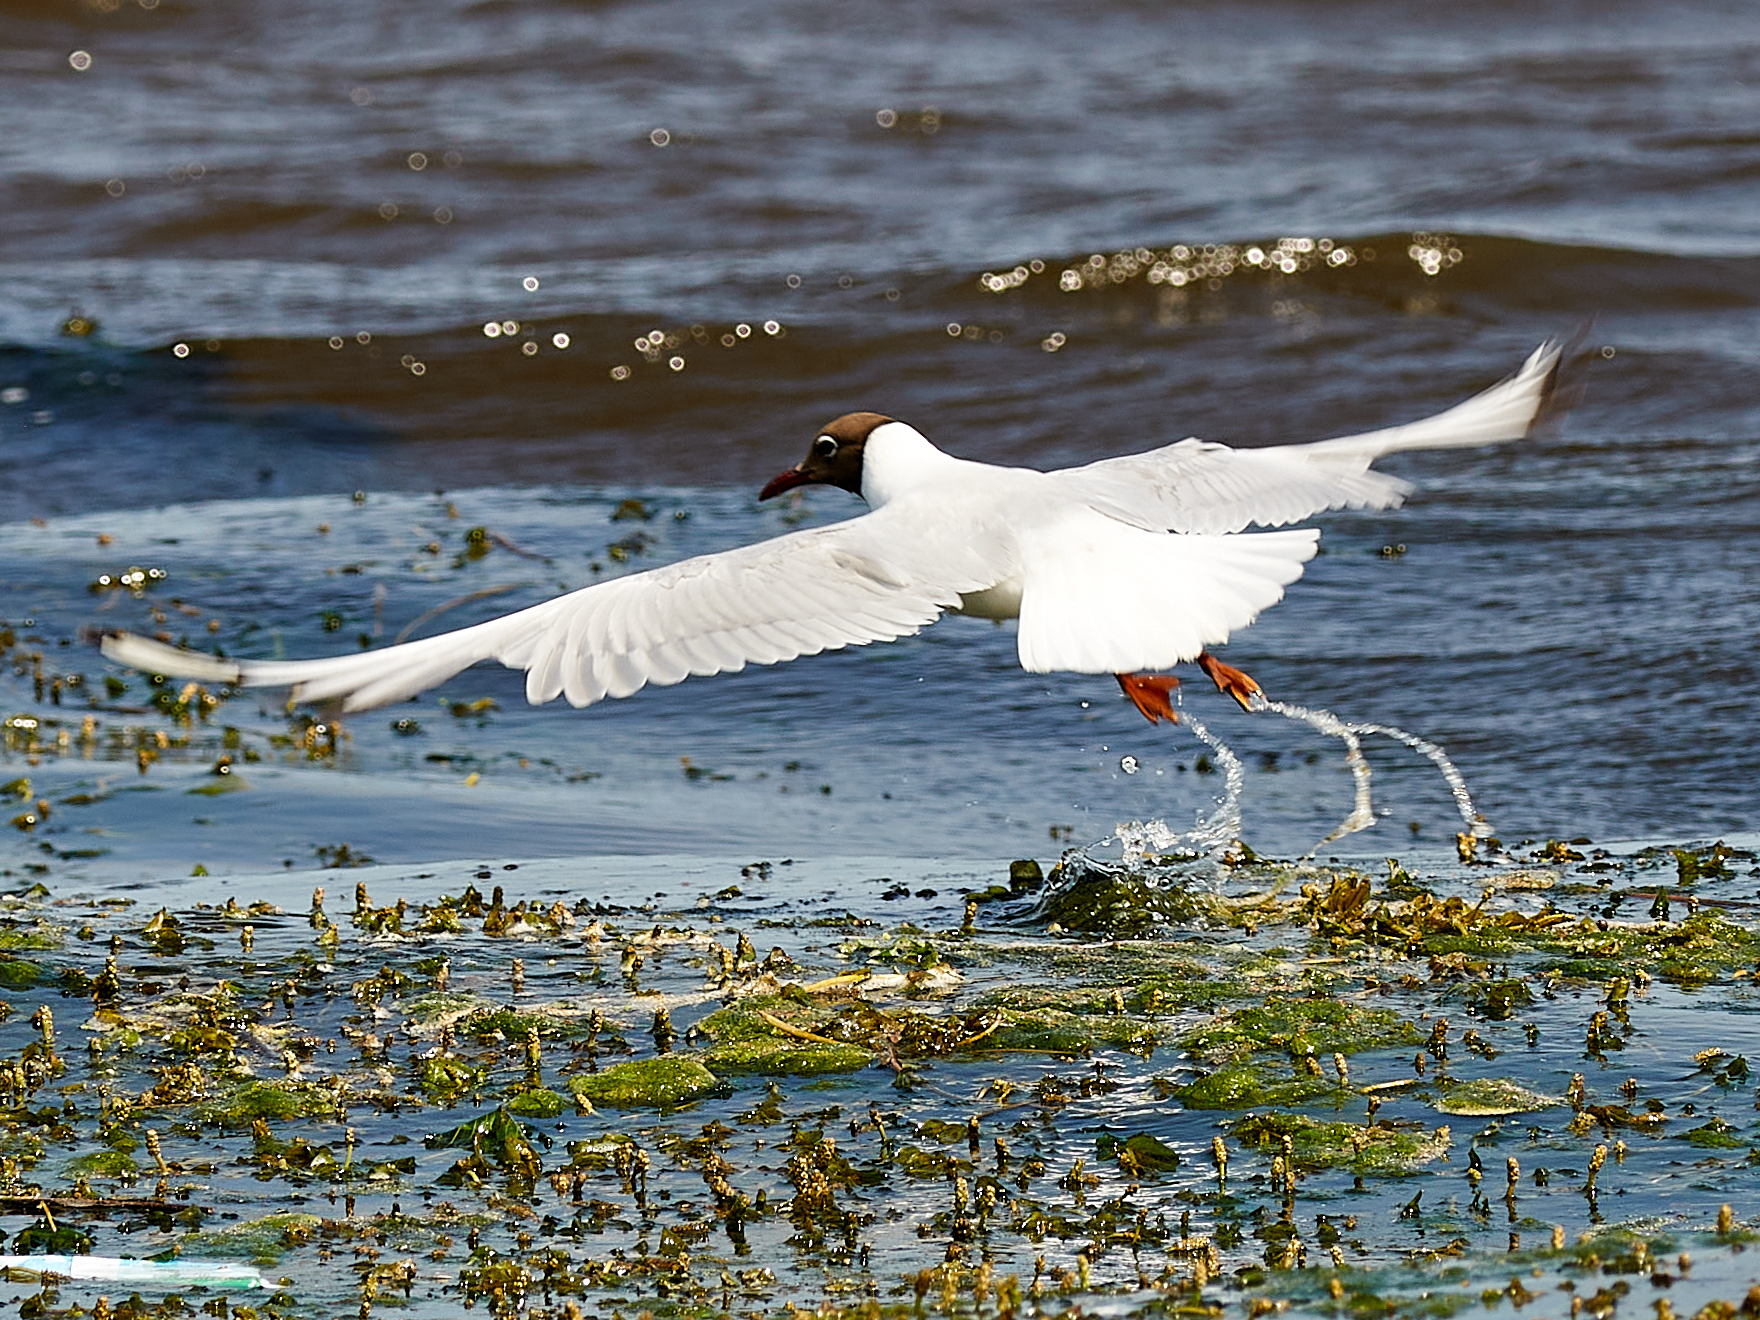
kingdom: Animalia
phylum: Chordata
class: Aves
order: Charadriiformes
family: Laridae
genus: Chroicocephalus
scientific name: Chroicocephalus ridibundus
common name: Black-headed gull
